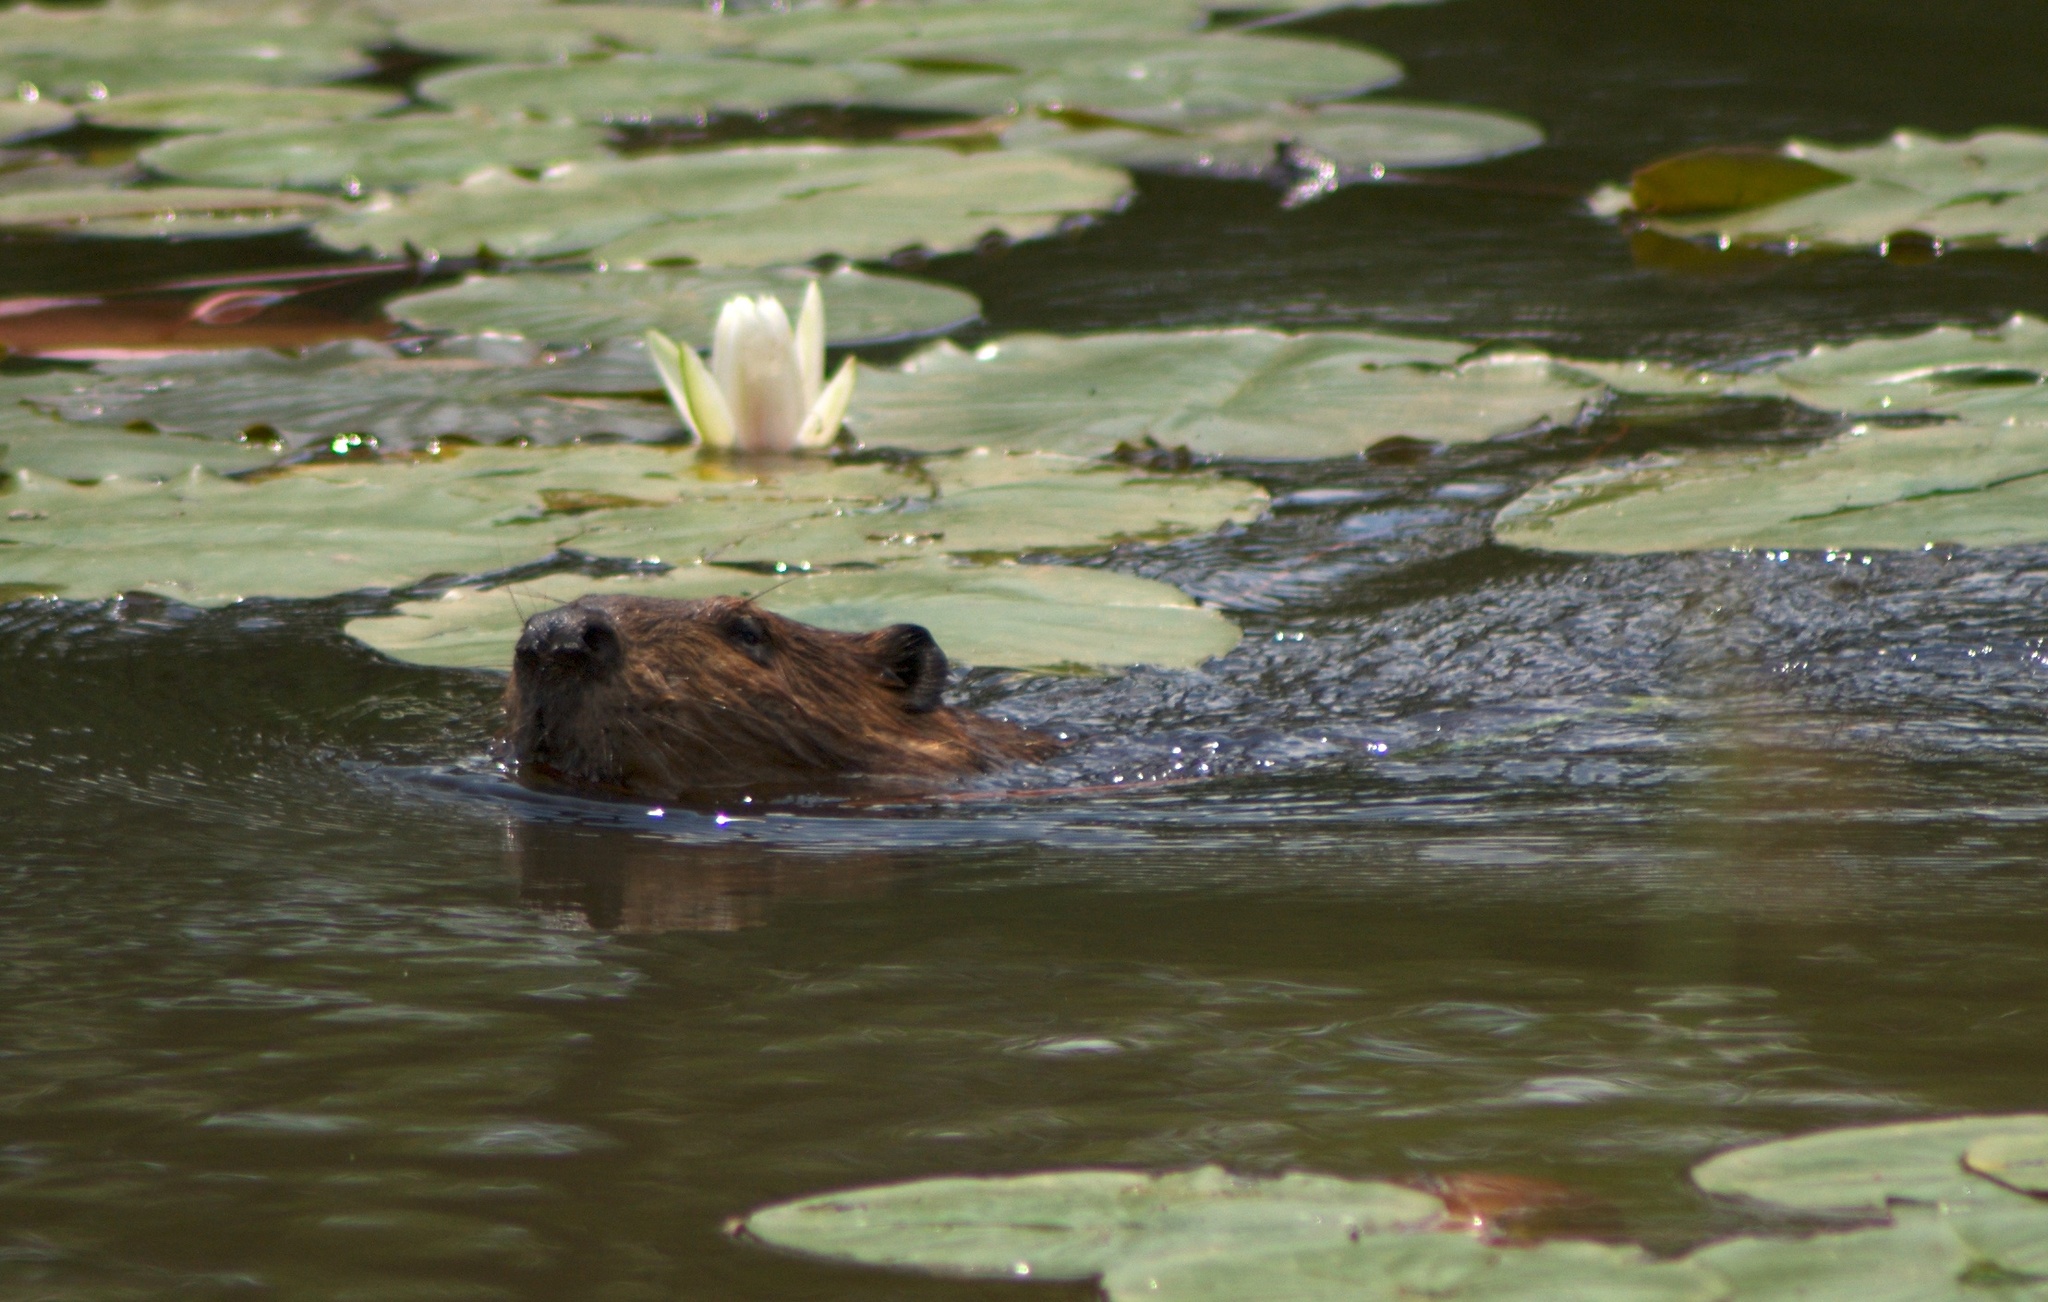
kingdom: Animalia
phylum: Chordata
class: Mammalia
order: Rodentia
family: Castoridae
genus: Castor
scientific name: Castor canadensis
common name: American beaver
